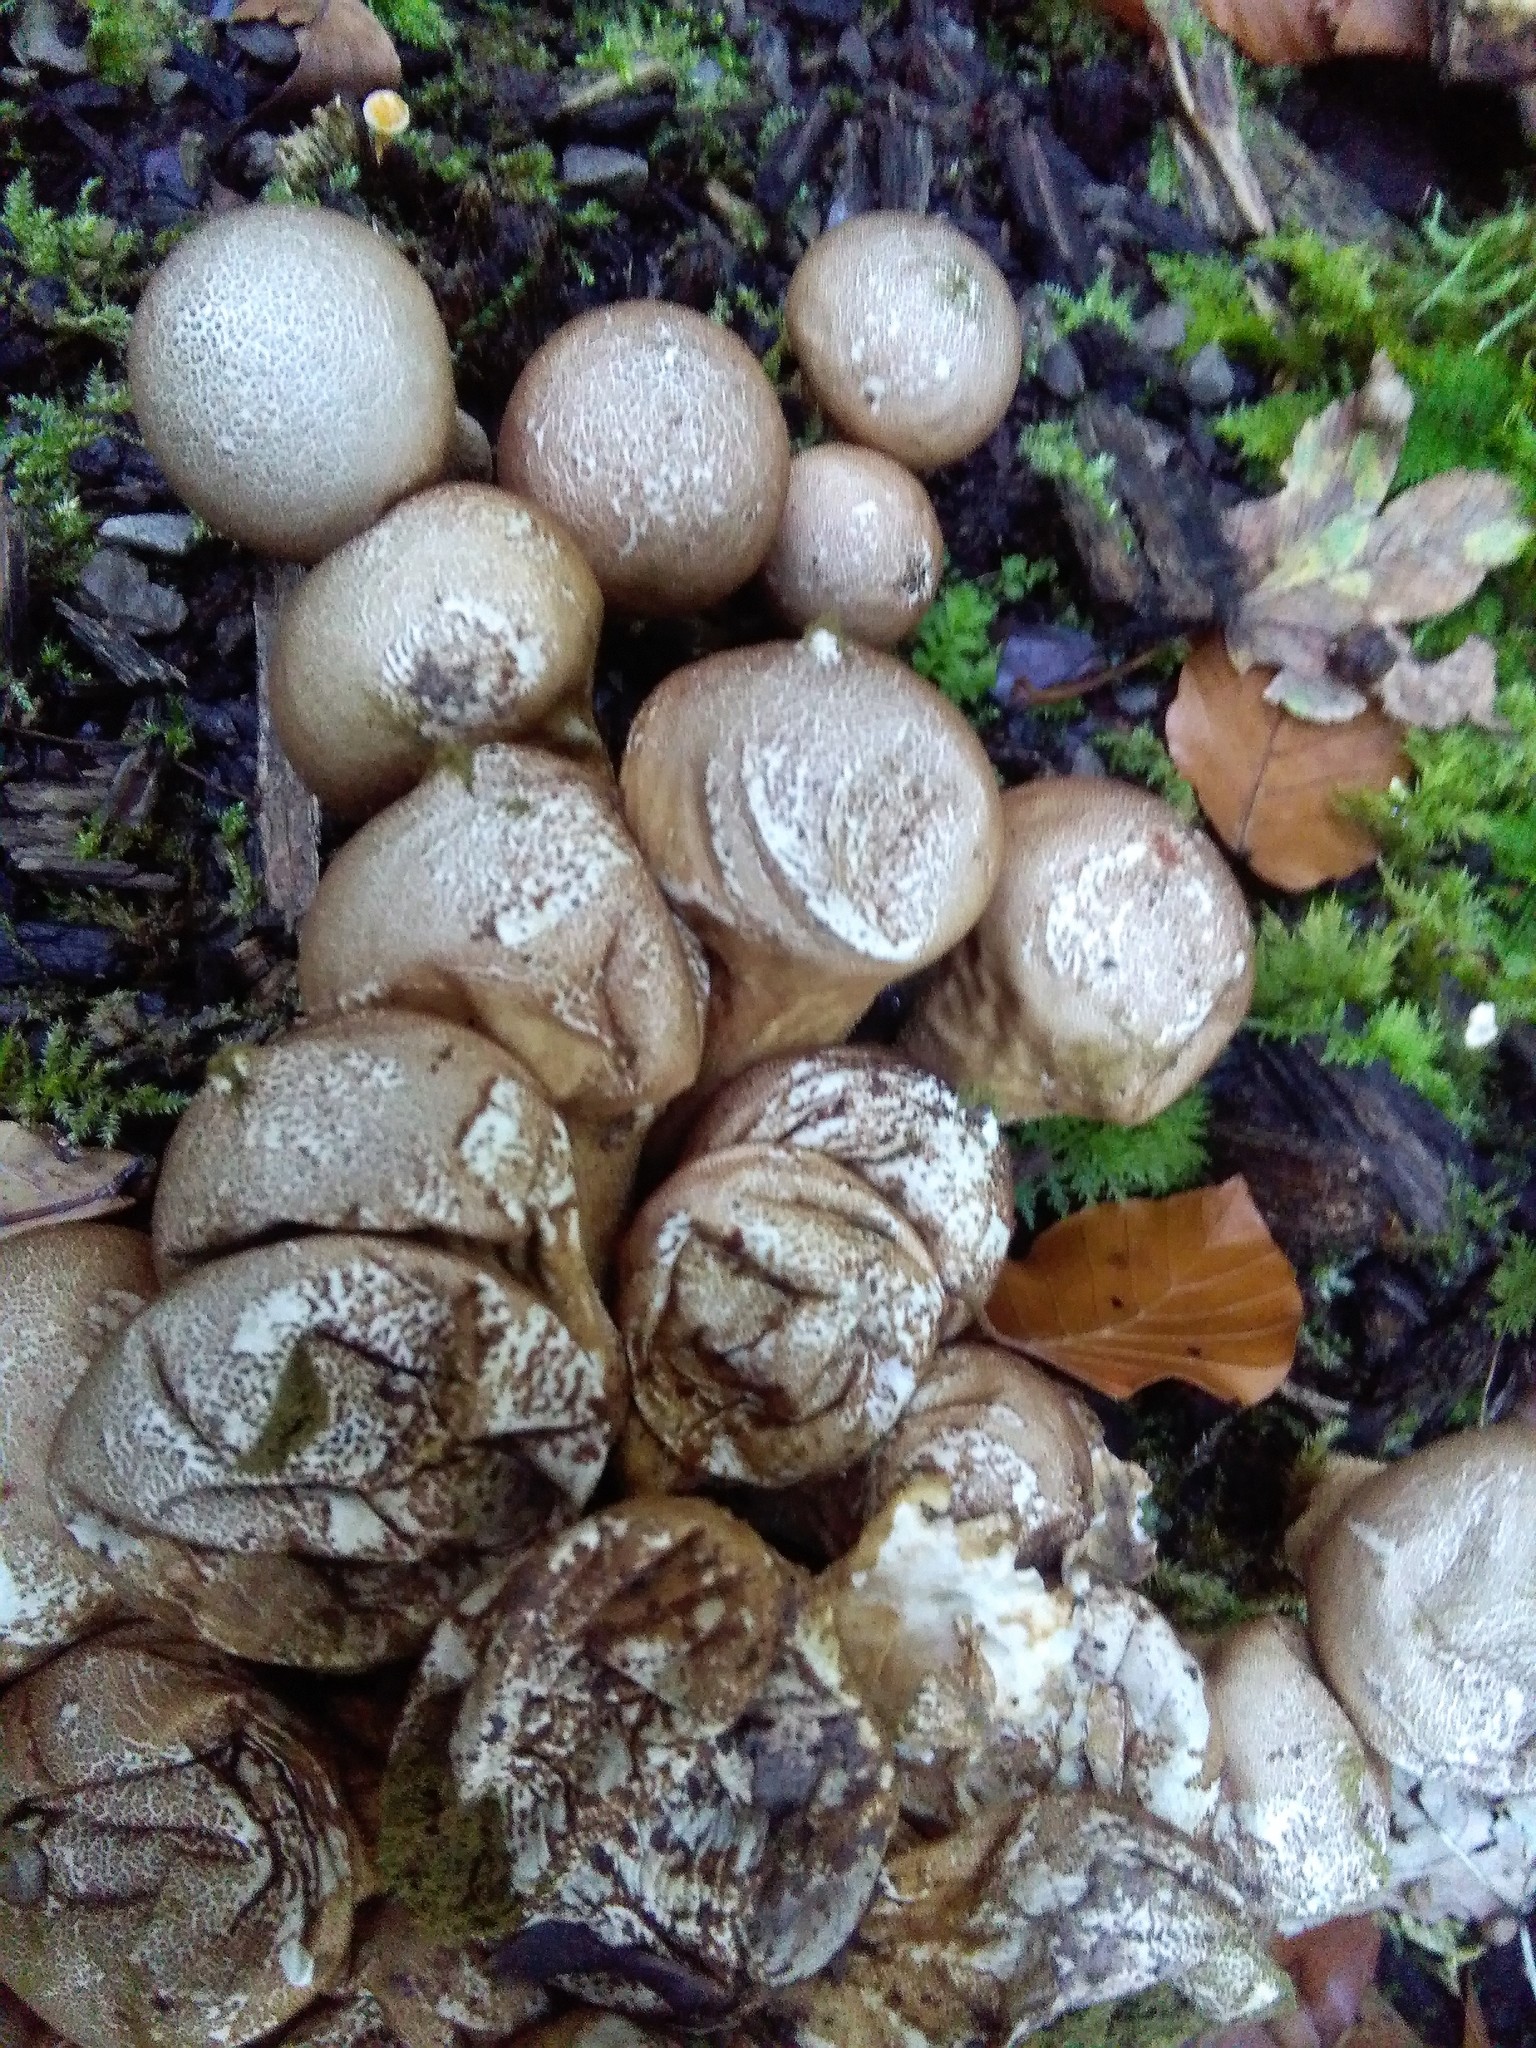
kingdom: Fungi
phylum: Basidiomycota
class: Agaricomycetes
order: Agaricales
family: Lycoperdaceae
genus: Apioperdon
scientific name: Apioperdon pyriforme
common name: Pear-shaped puffball
